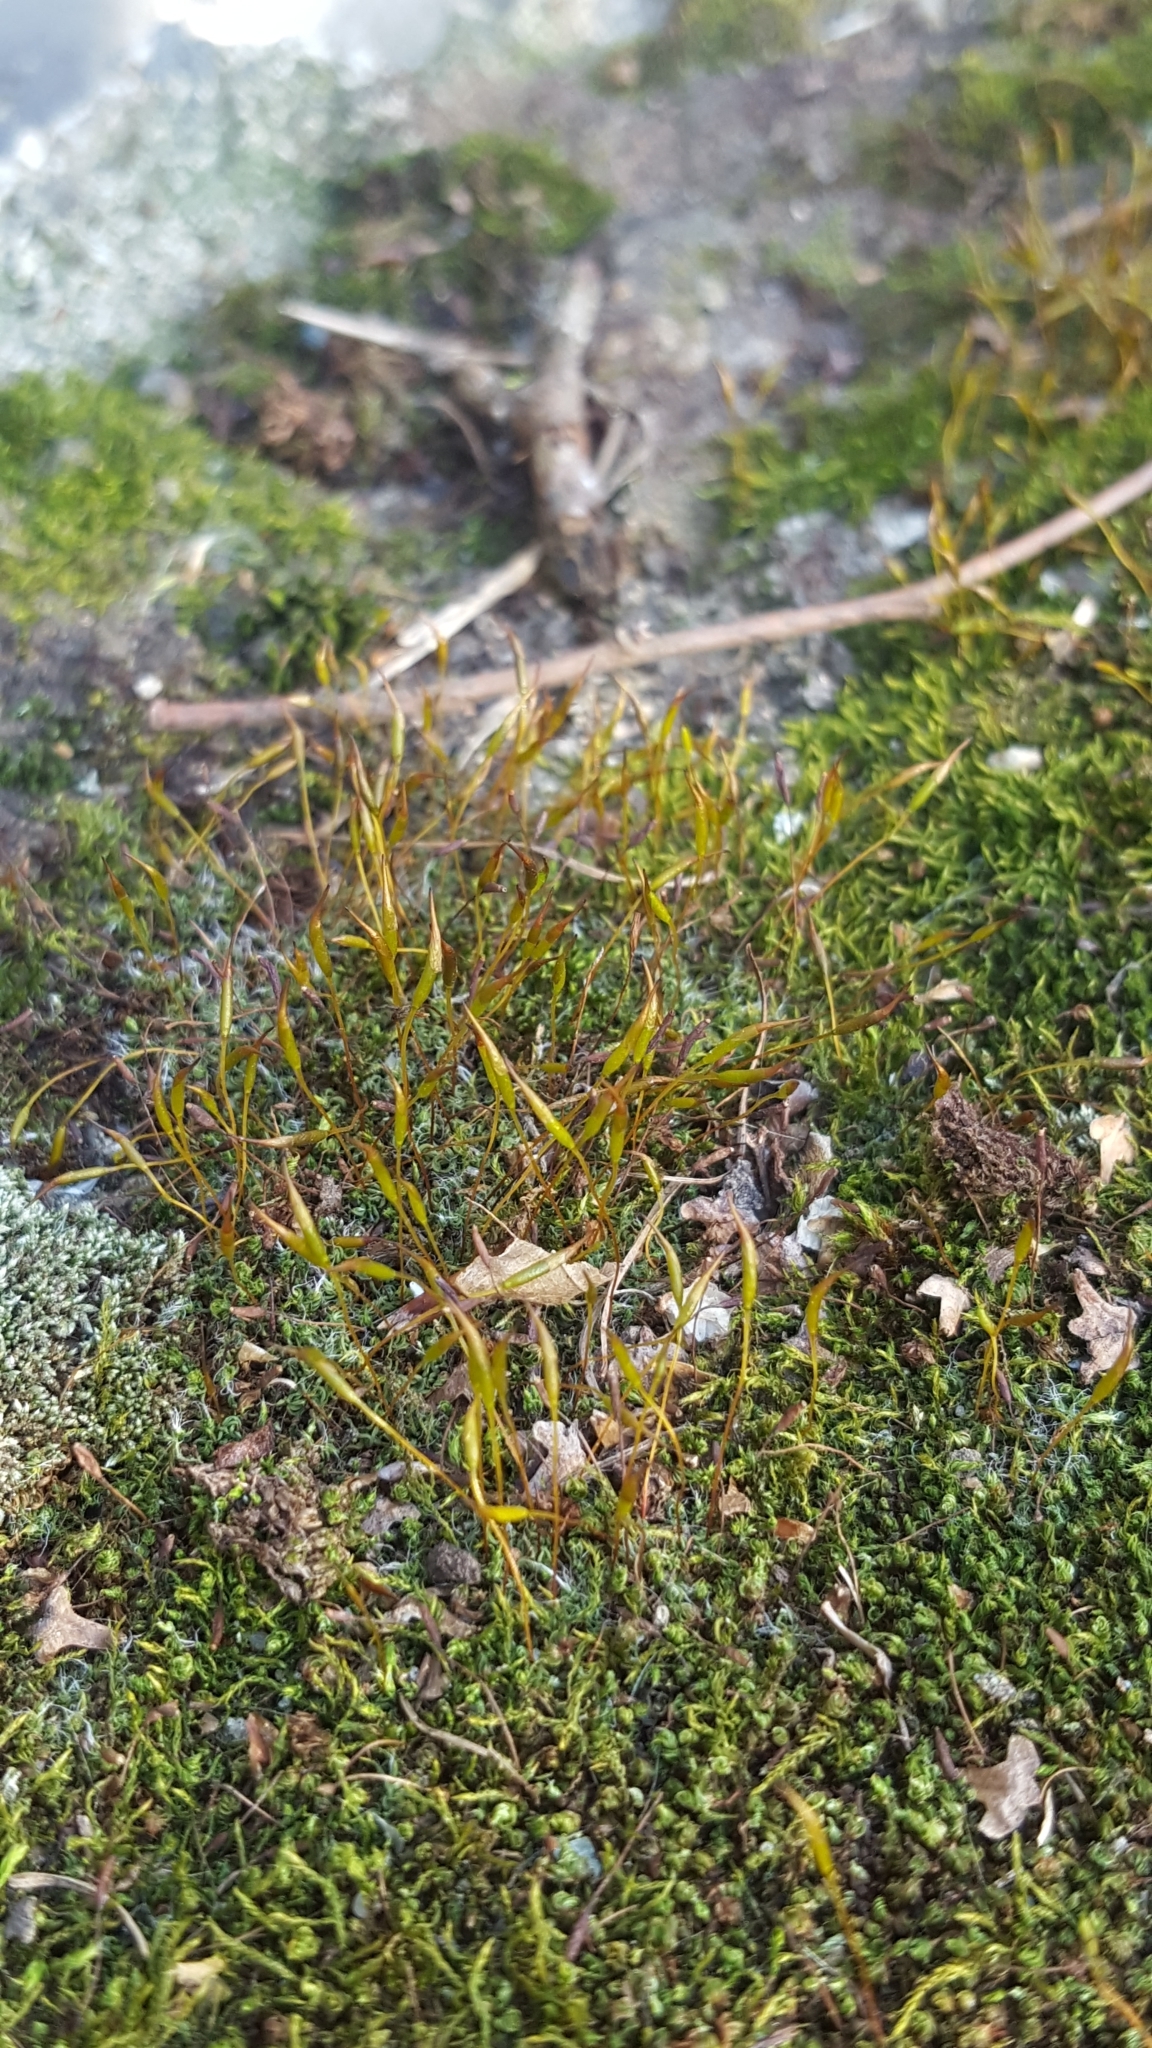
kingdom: Plantae
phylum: Bryophyta
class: Bryopsida
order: Bryales
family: Bryaceae
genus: Bryum
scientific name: Bryum argenteum
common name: Silver-moss
